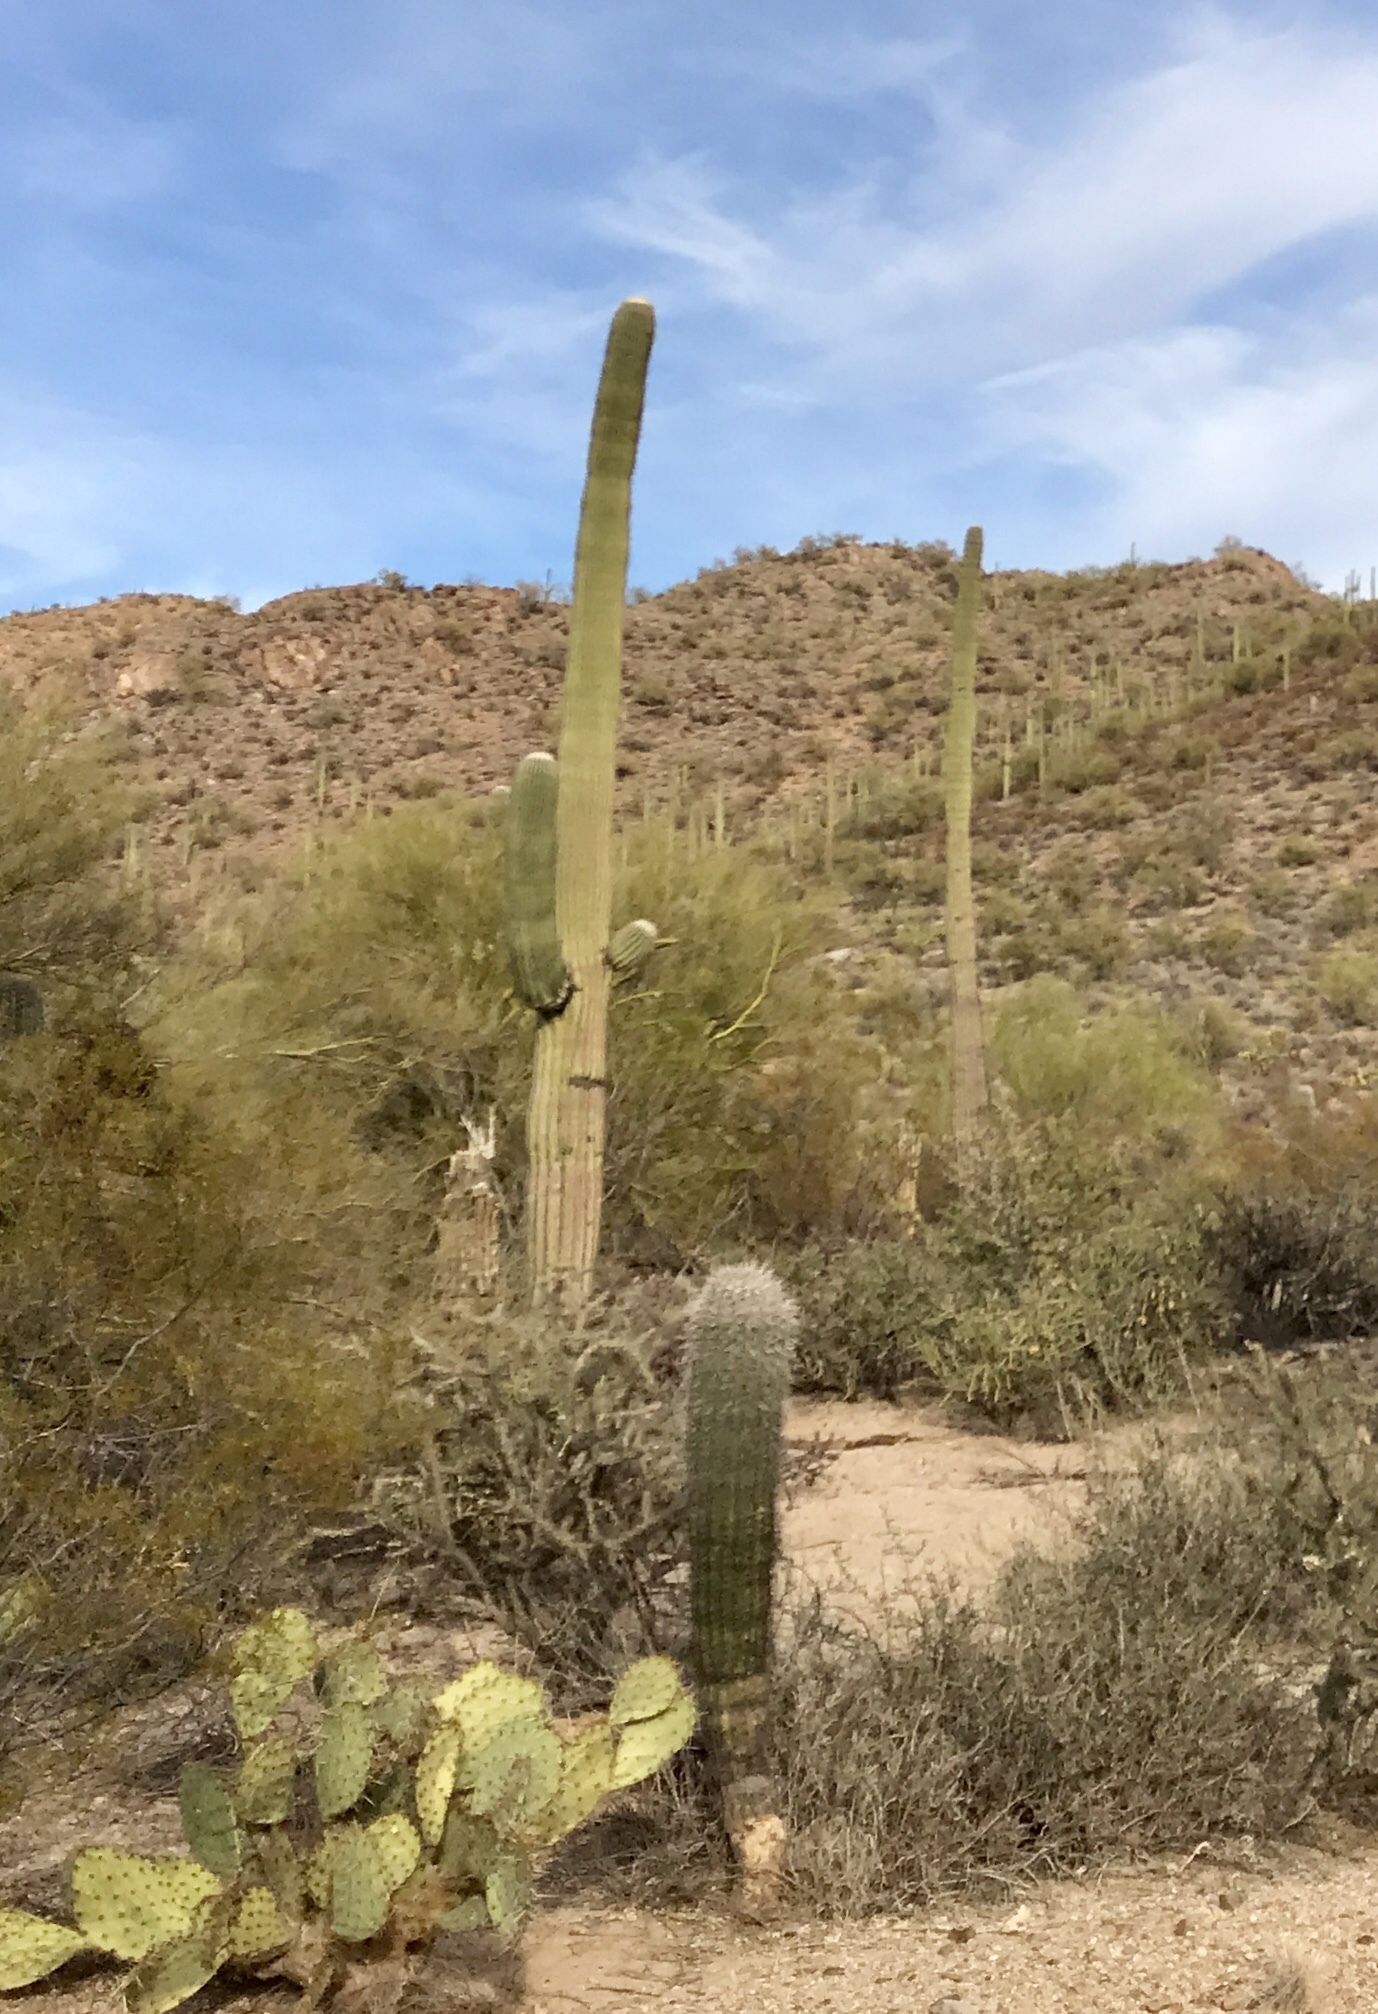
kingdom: Plantae
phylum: Tracheophyta
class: Magnoliopsida
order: Caryophyllales
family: Cactaceae
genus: Carnegiea
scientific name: Carnegiea gigantea
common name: Saguaro
